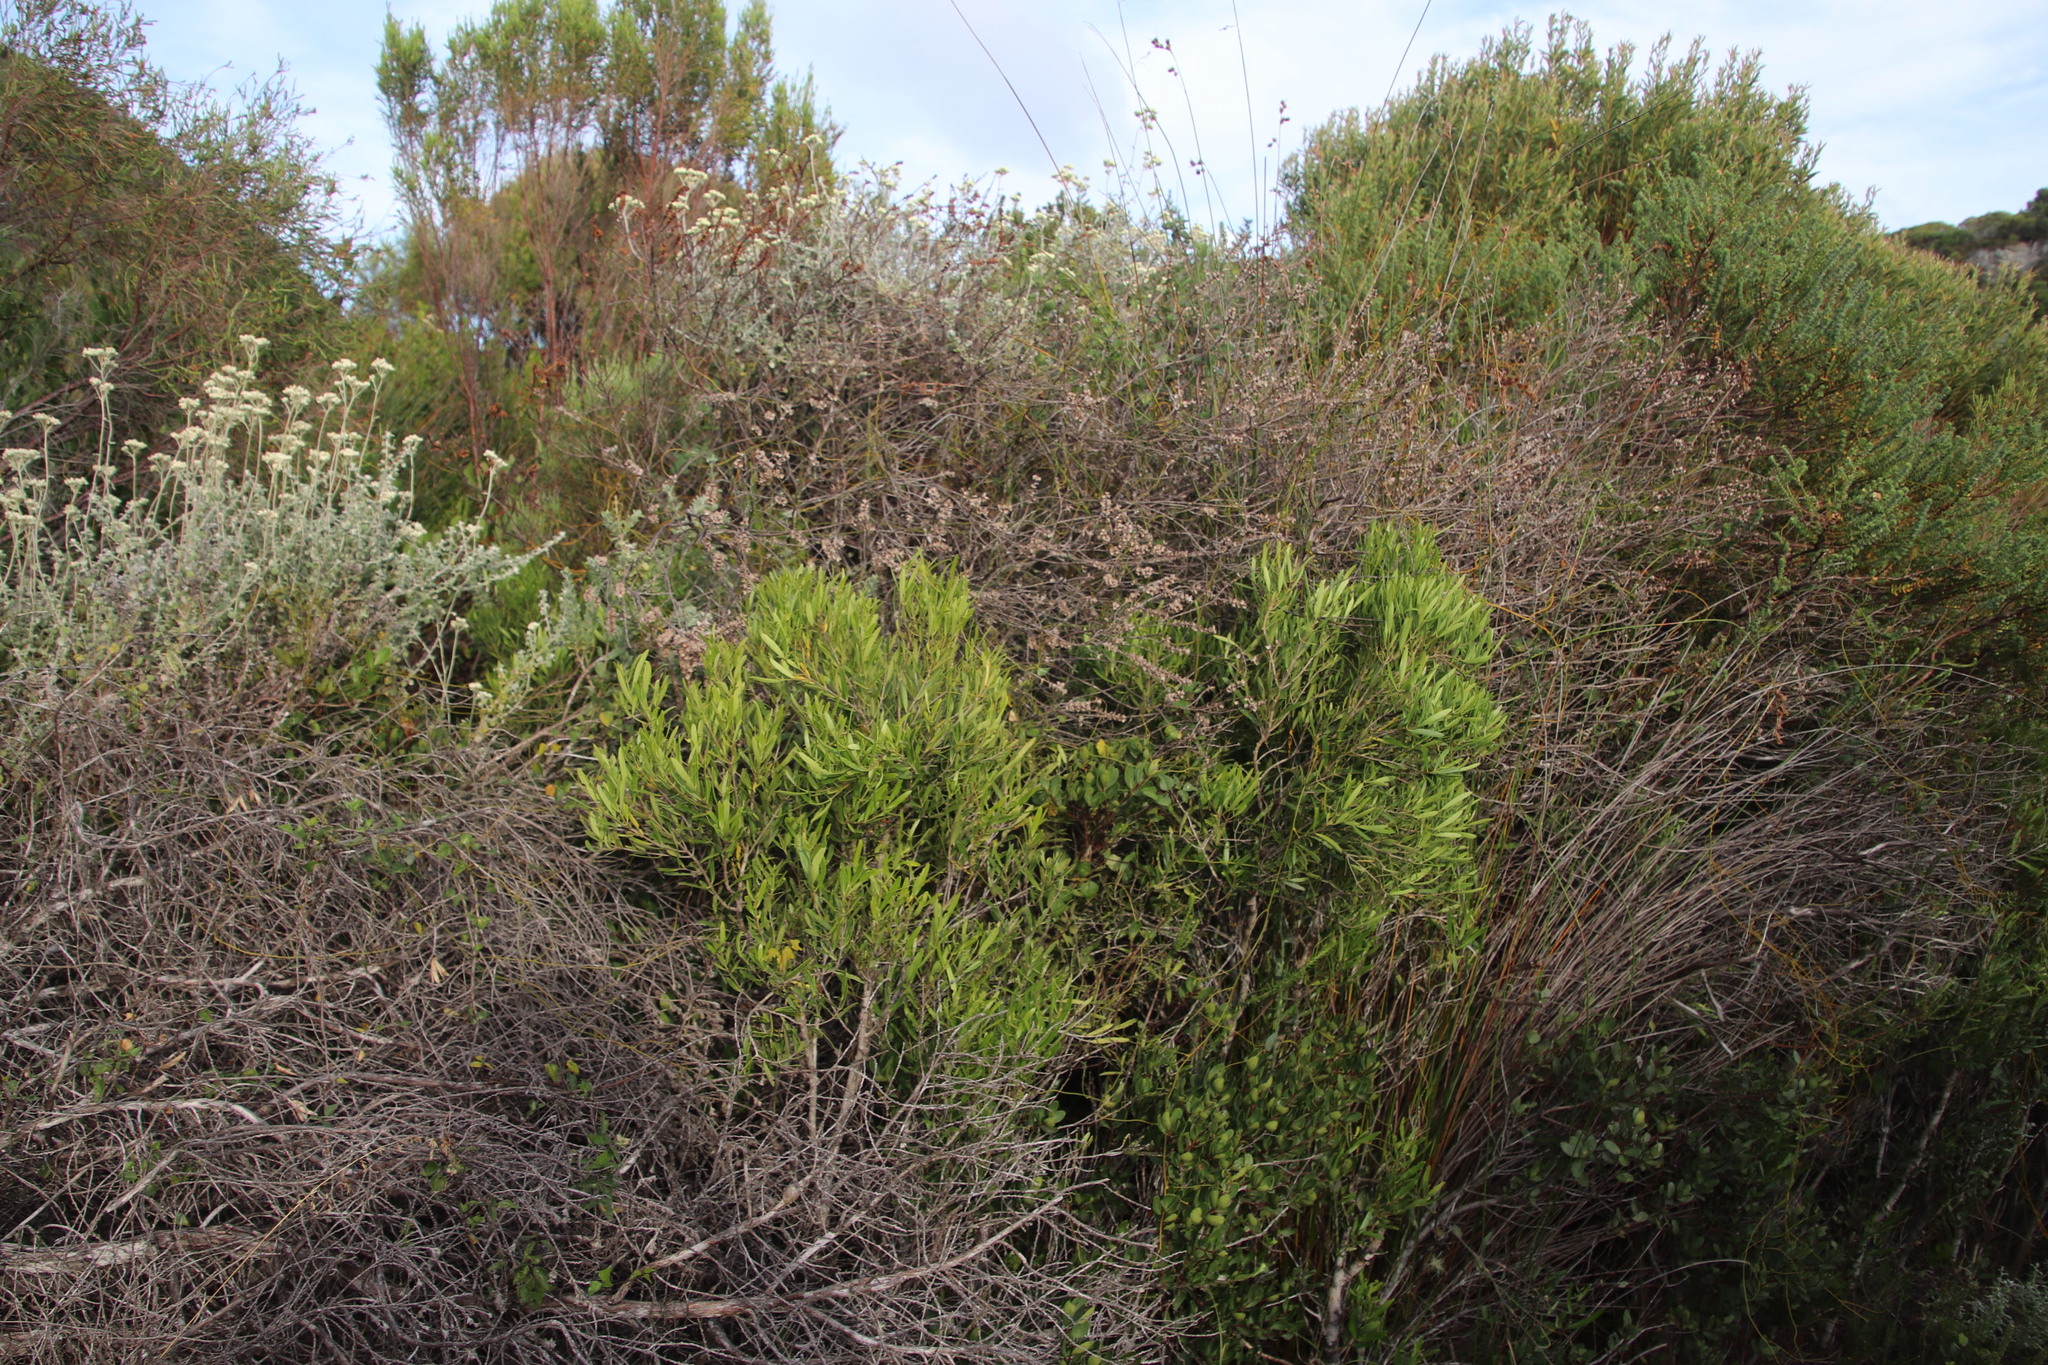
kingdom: Plantae
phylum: Tracheophyta
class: Magnoliopsida
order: Lamiales
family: Oleaceae
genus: Olea
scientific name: Olea exasperata
